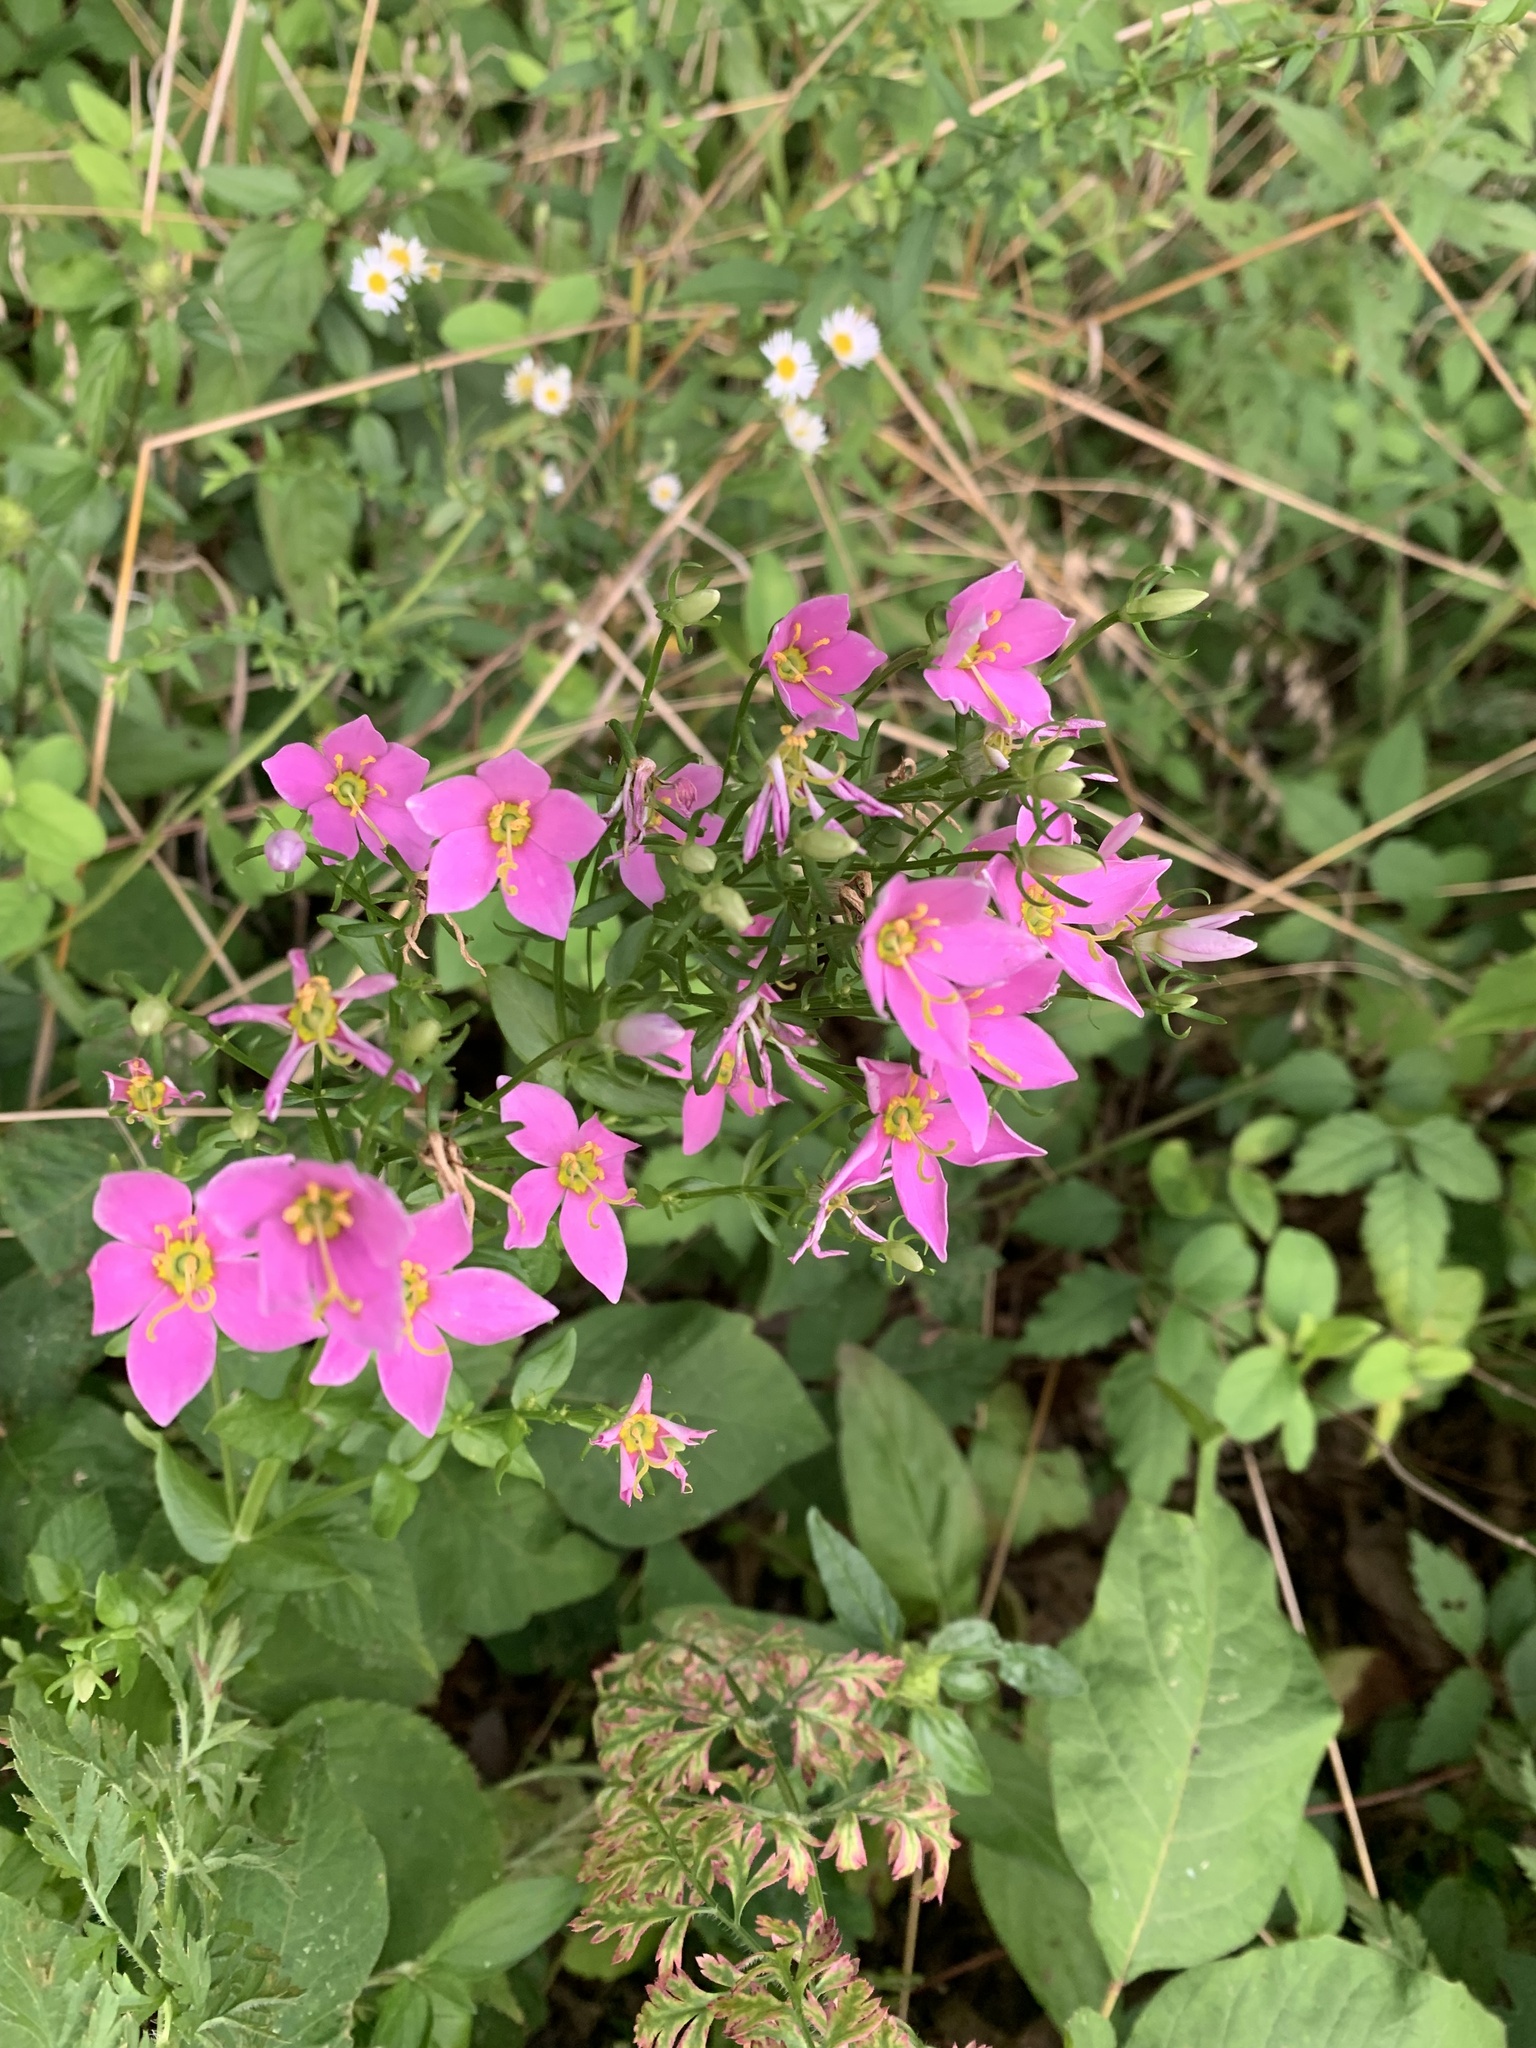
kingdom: Plantae
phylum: Tracheophyta
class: Magnoliopsida
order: Gentianales
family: Gentianaceae
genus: Sabatia
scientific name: Sabatia angularis
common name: Rose-pink
